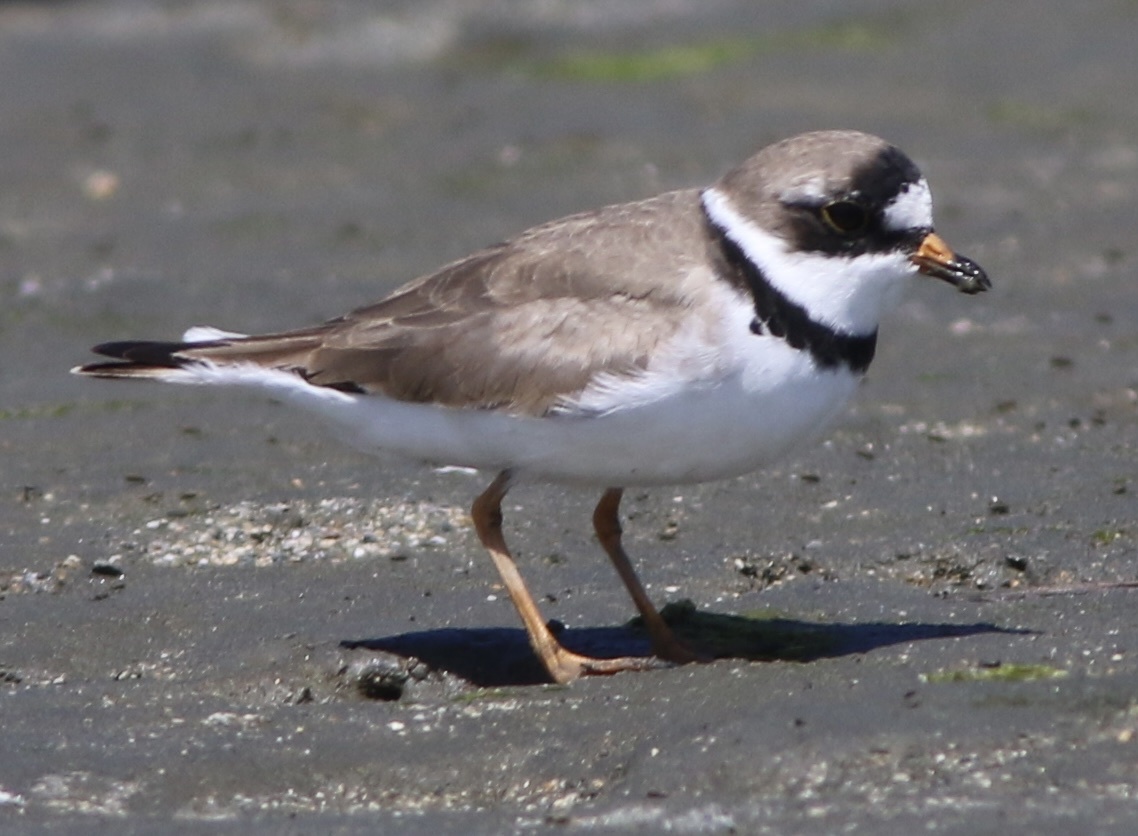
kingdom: Animalia
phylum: Chordata
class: Aves
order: Charadriiformes
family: Charadriidae
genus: Charadrius
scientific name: Charadrius semipalmatus
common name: Semipalmated plover
